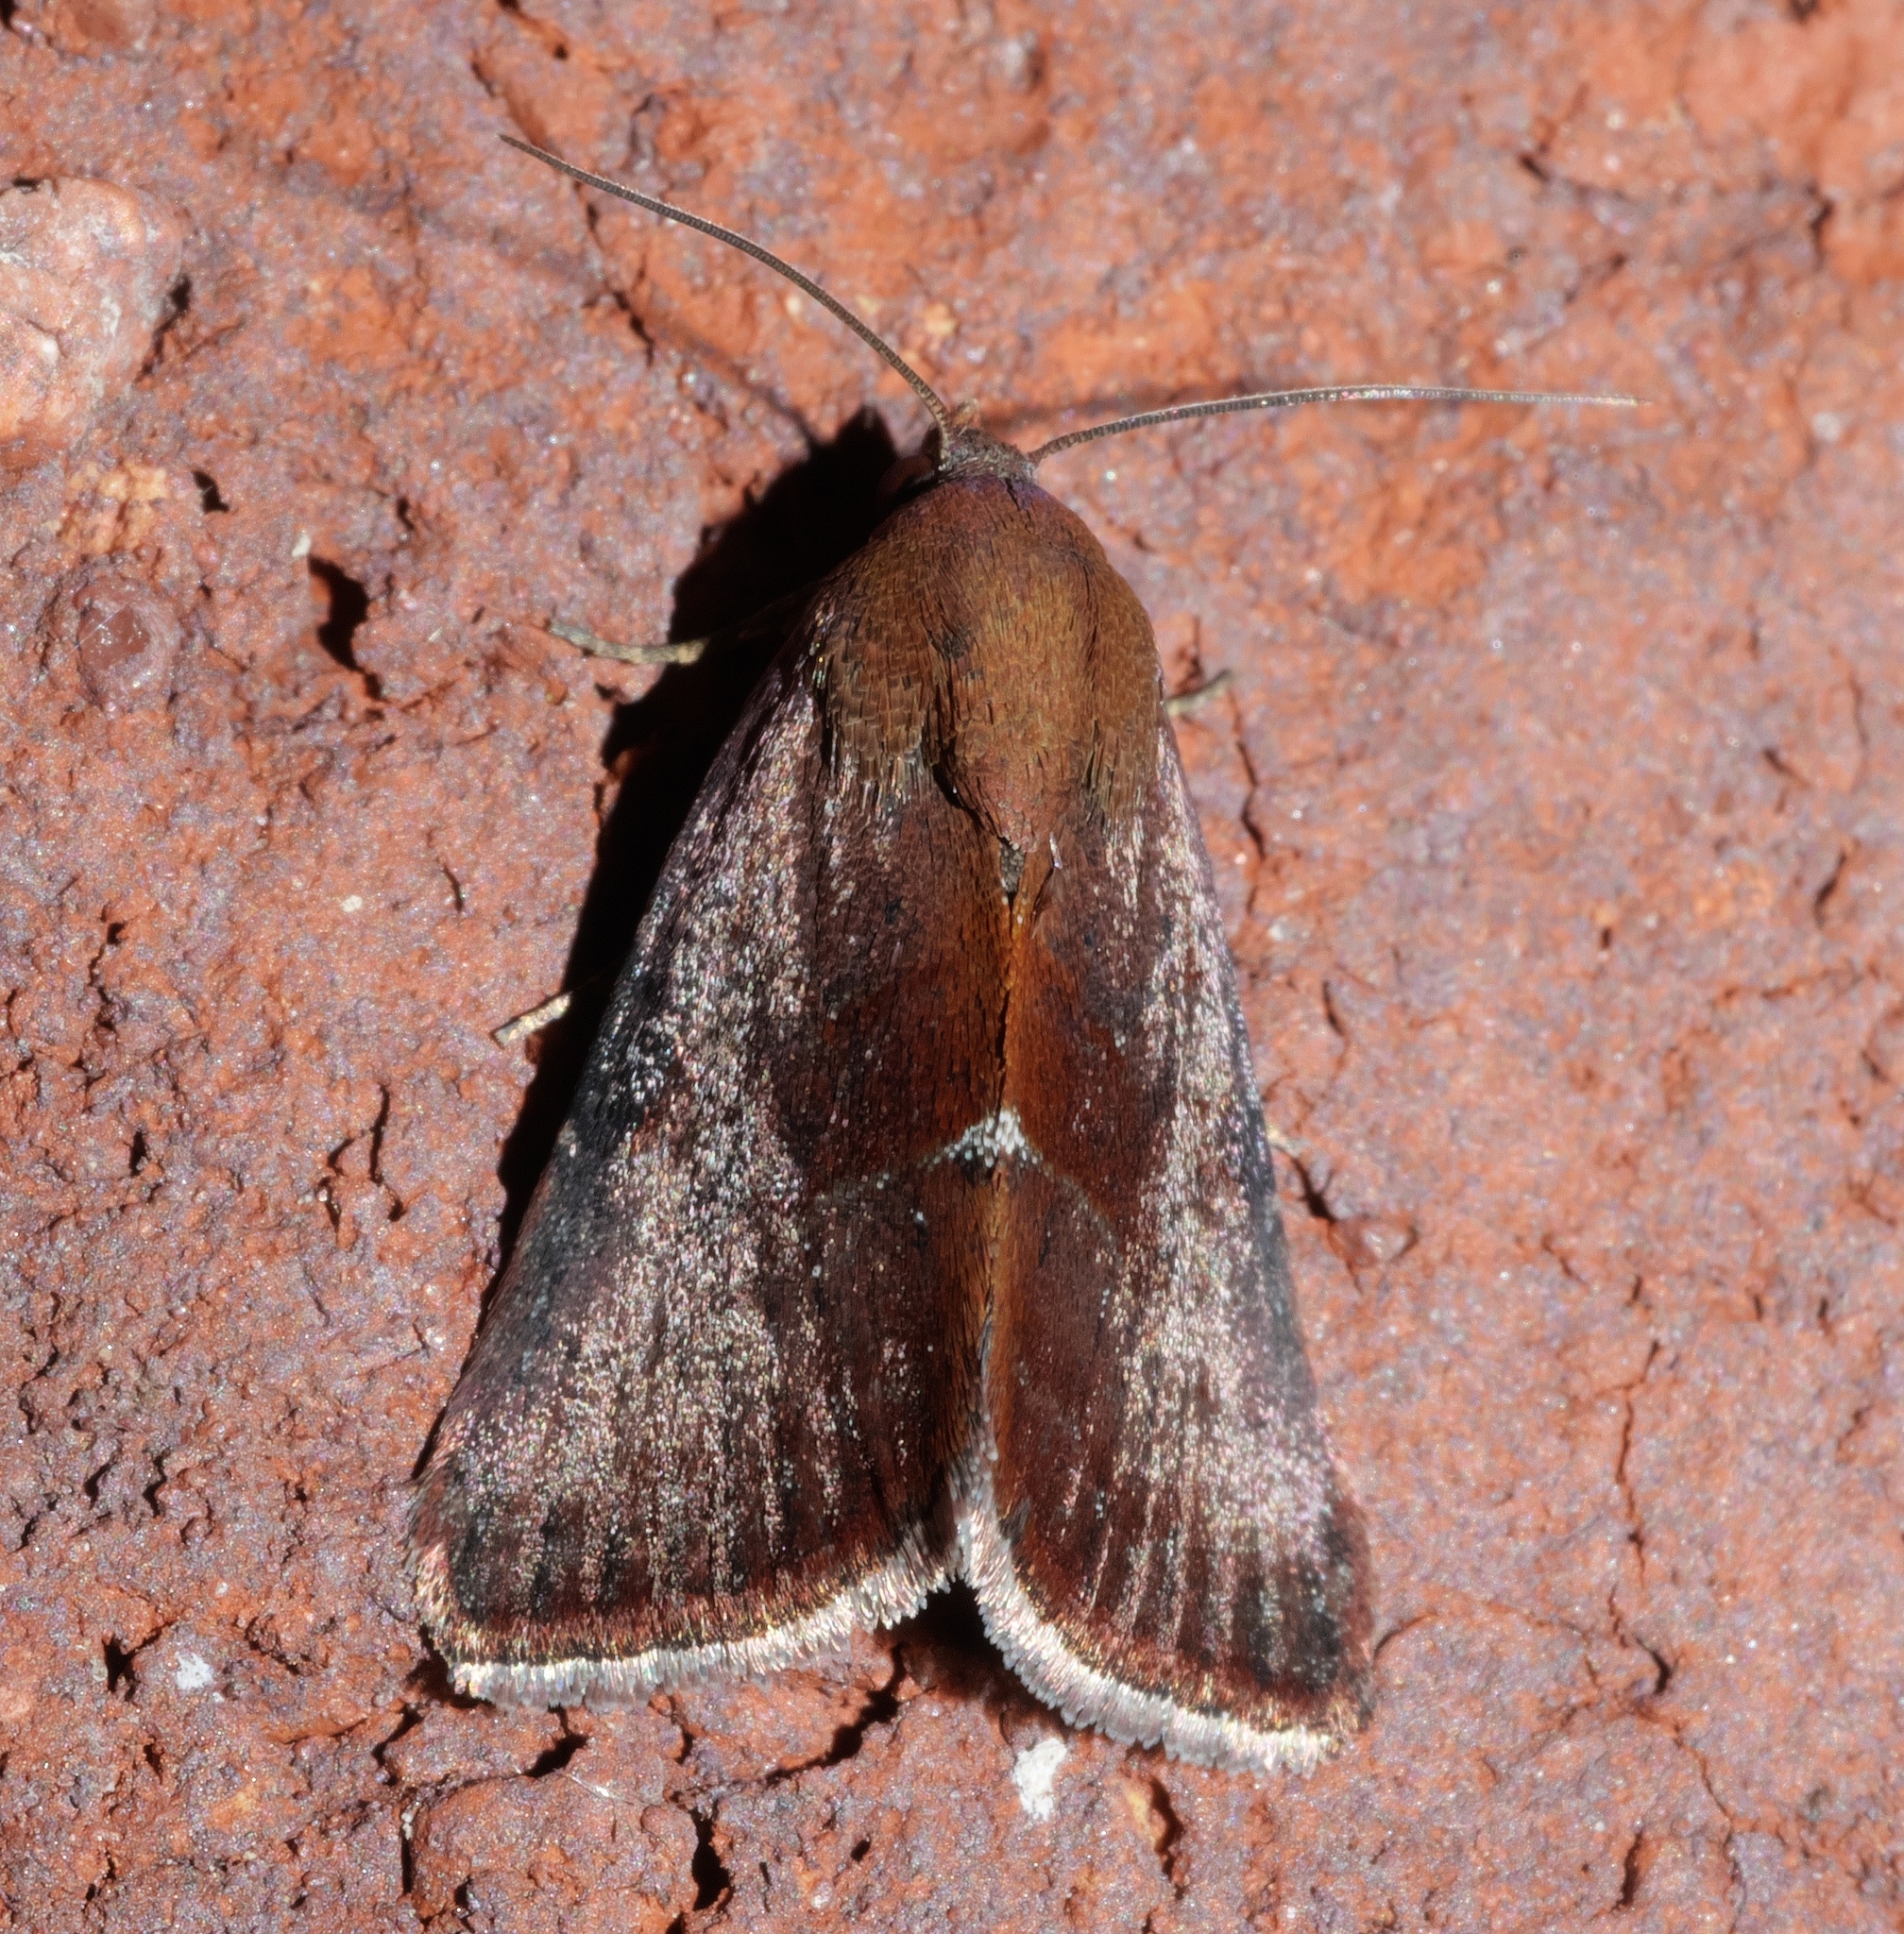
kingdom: Animalia
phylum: Arthropoda
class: Insecta
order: Lepidoptera
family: Noctuidae
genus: Galgula
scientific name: Galgula partita
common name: Wedgeling
